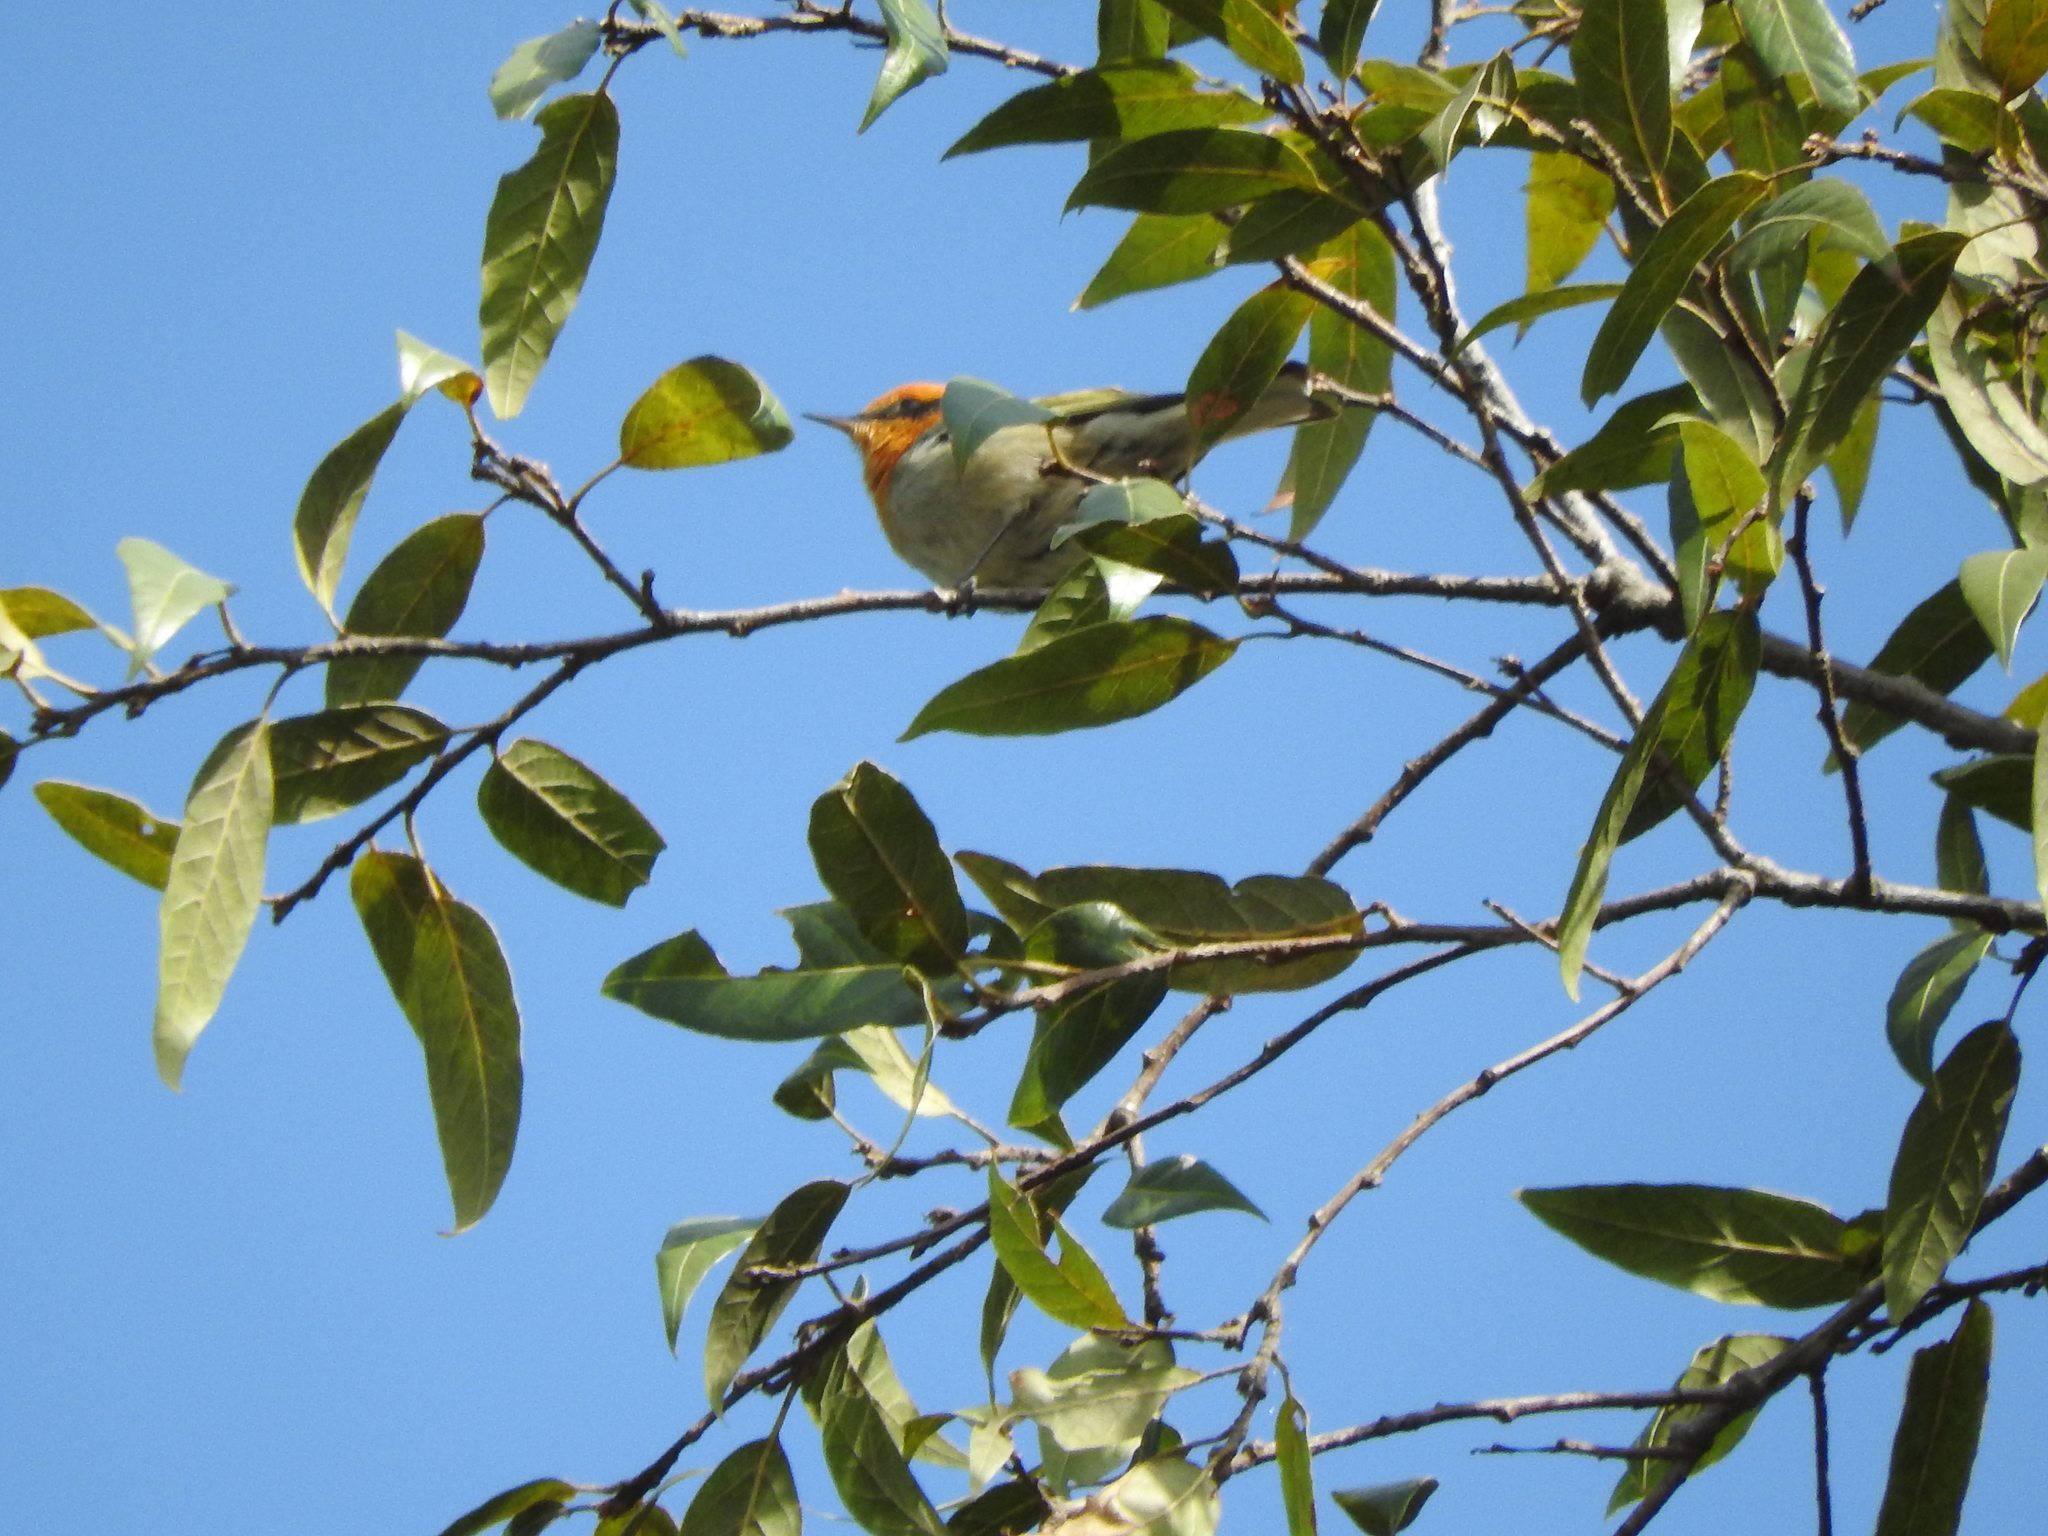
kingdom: Animalia
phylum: Chordata
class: Aves
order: Passeriformes
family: Peucedramidae
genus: Peucedramus
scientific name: Peucedramus taeniatus
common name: Olive warbler
